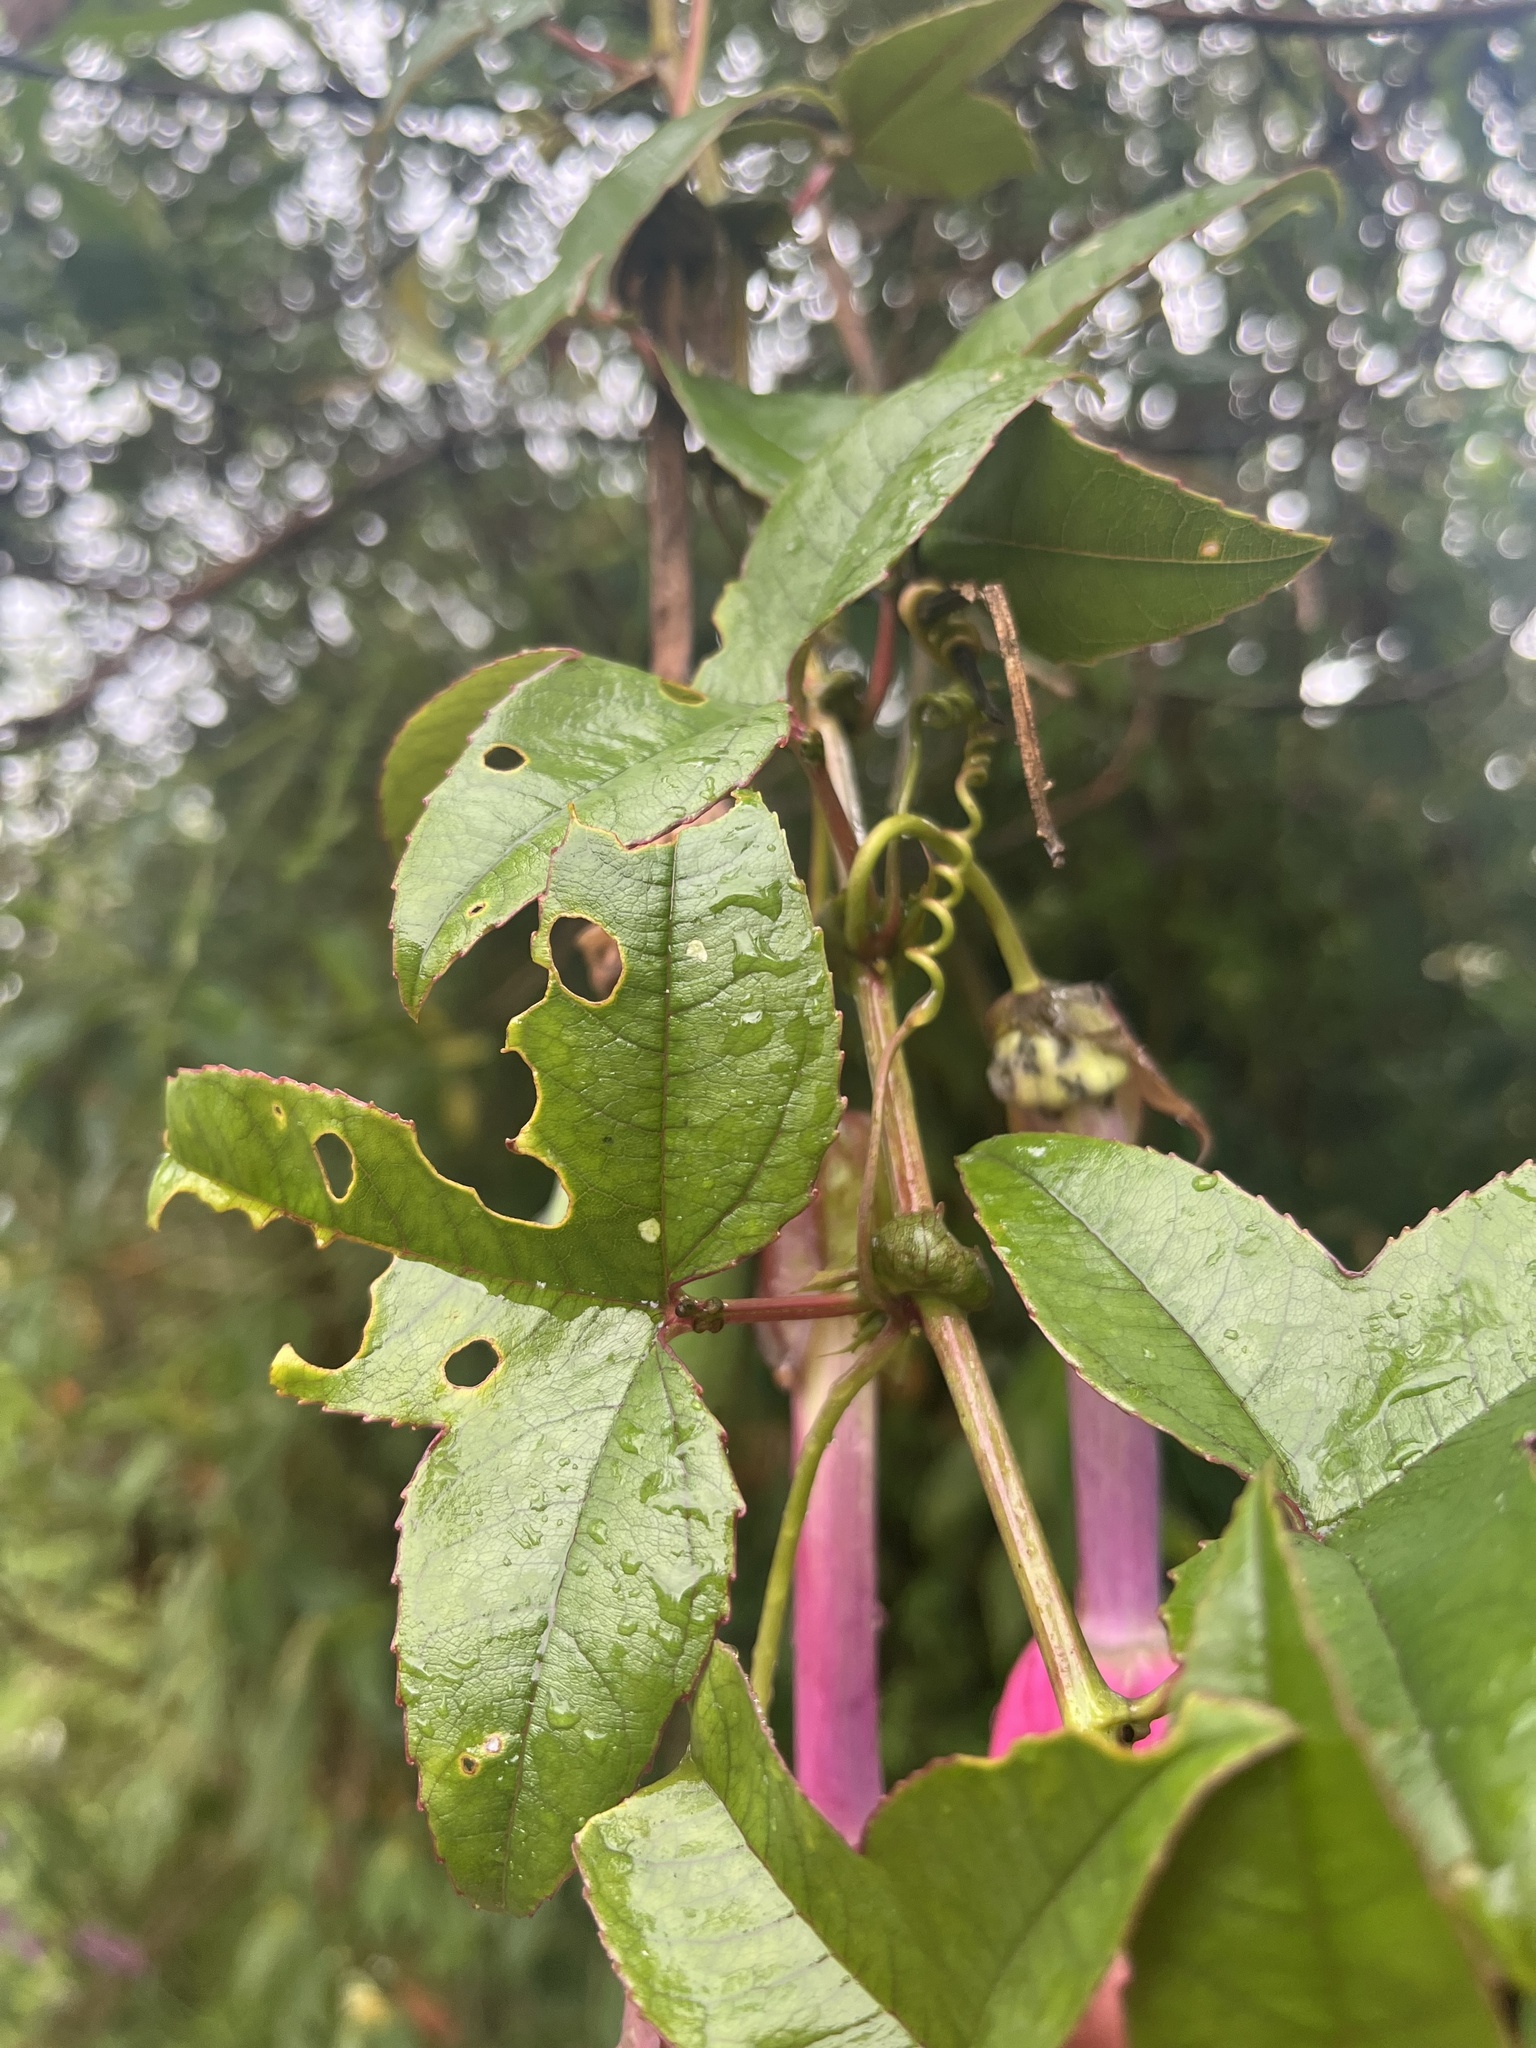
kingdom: Plantae
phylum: Tracheophyta
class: Magnoliopsida
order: Malpighiales
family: Passifloraceae
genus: Passiflora
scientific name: Passiflora cumbalensis
